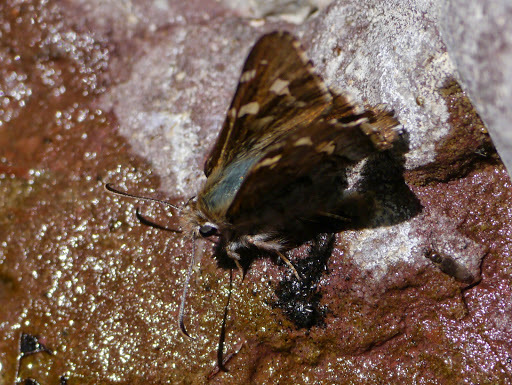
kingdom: Animalia
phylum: Arthropoda
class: Insecta
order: Lepidoptera
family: Hesperiidae
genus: Zestusa
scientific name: Zestusa dorus
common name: Short-tailed skipper
